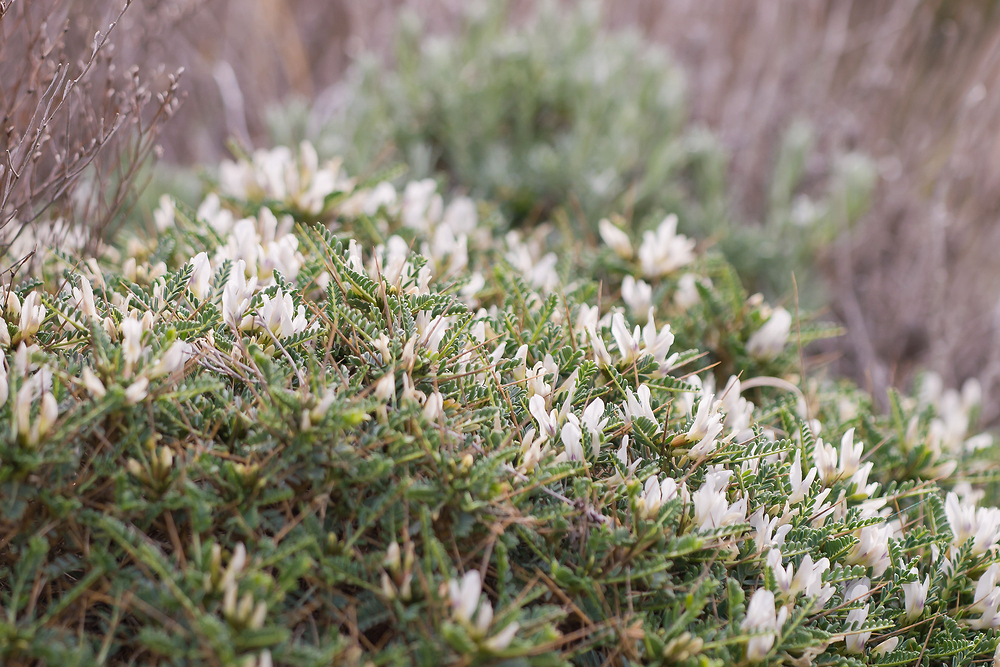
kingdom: Plantae
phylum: Tracheophyta
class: Magnoliopsida
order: Fabales
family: Fabaceae
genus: Astragalus
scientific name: Astragalus tragacantha
